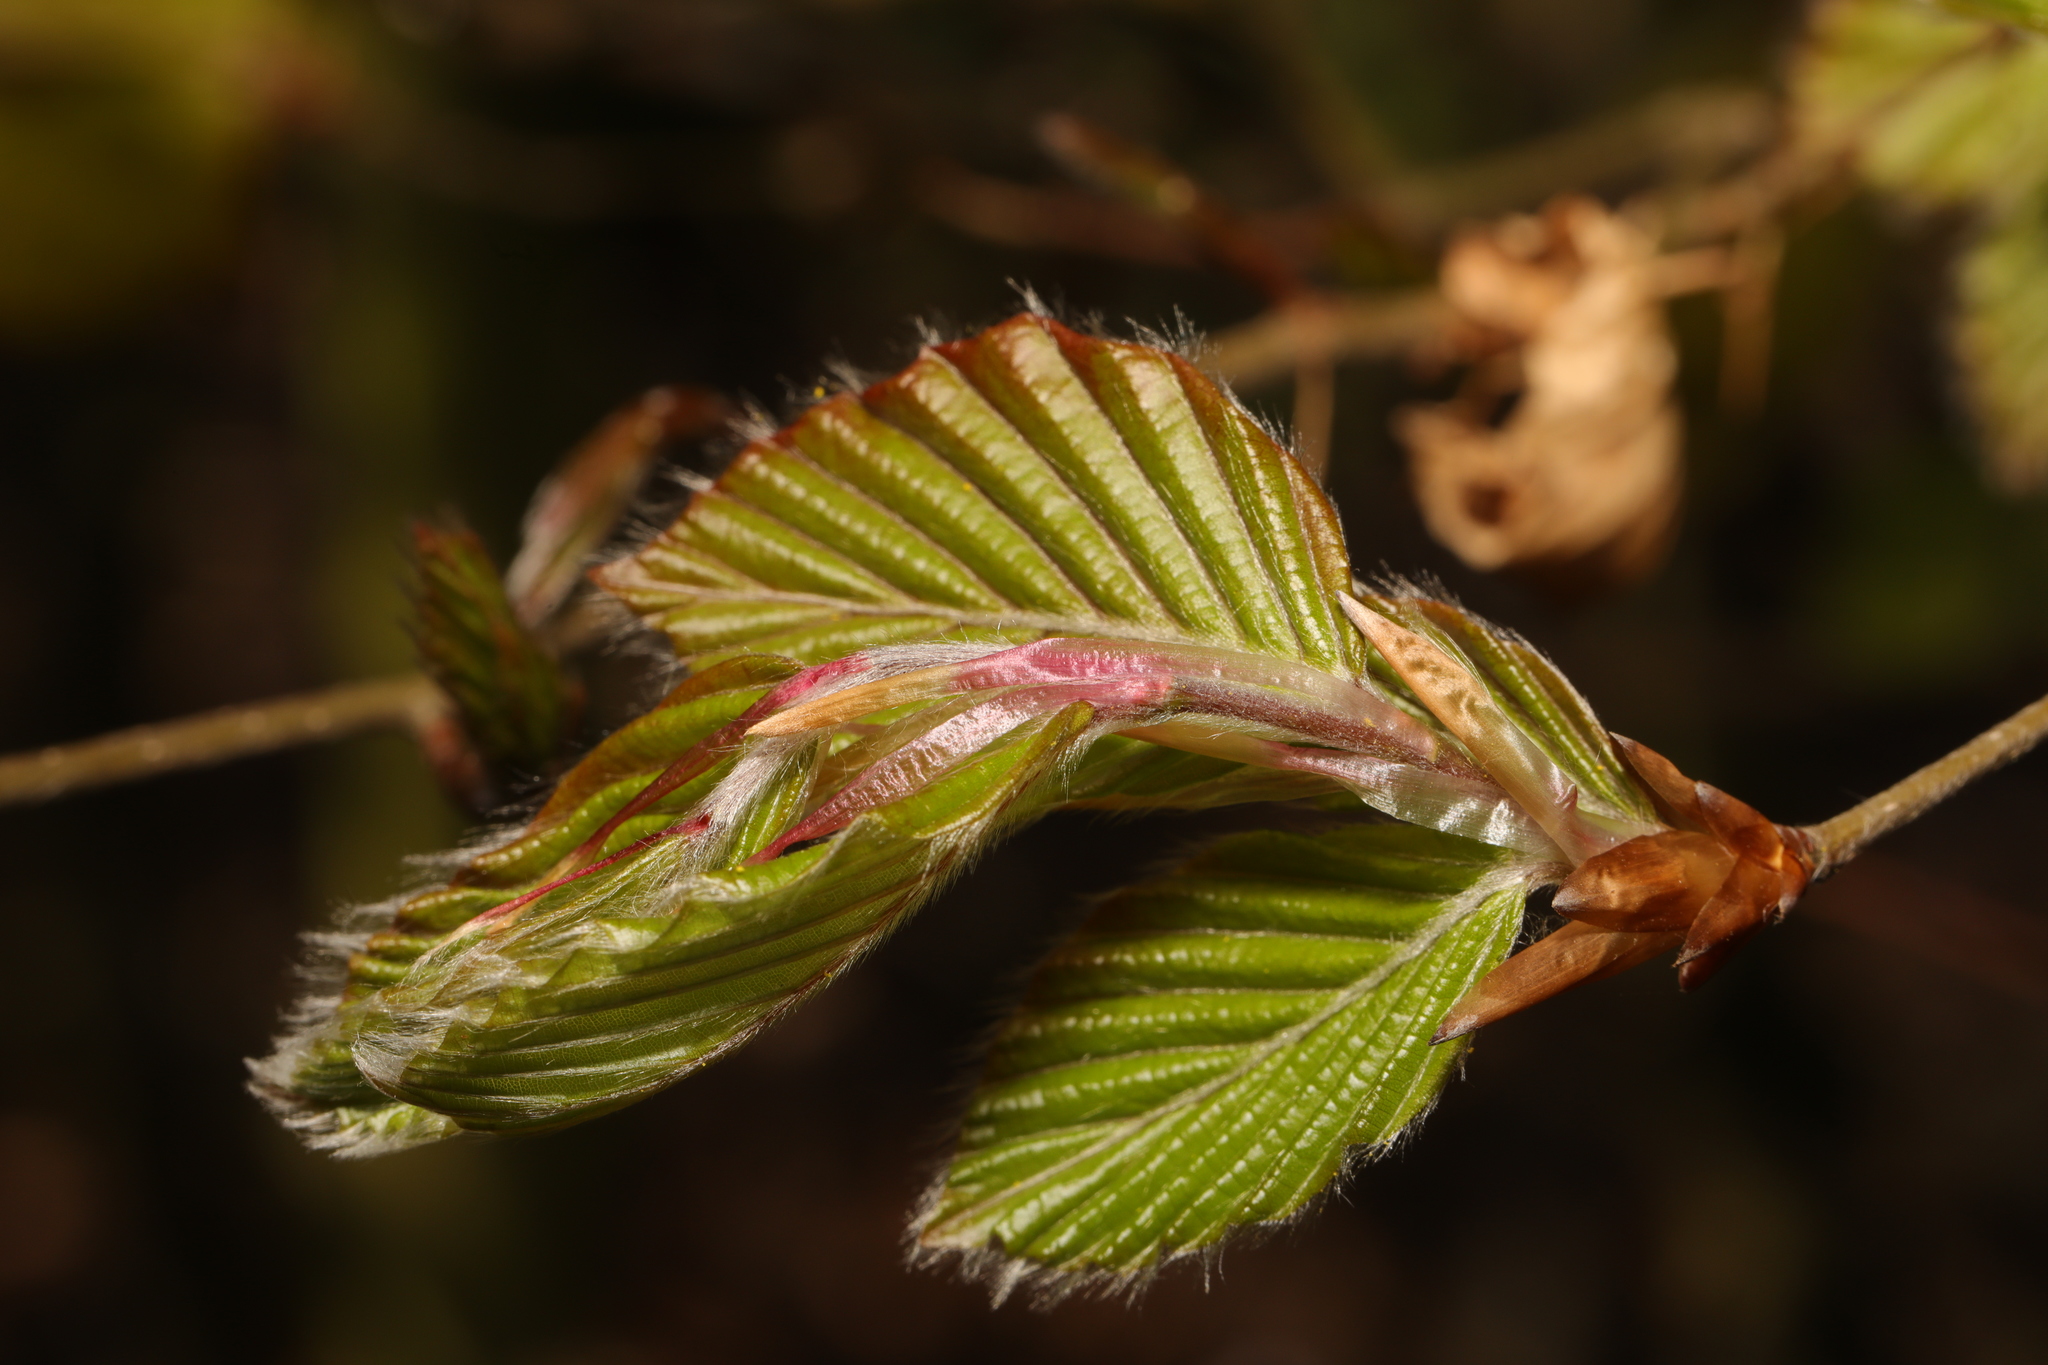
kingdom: Plantae
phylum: Tracheophyta
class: Magnoliopsida
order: Fagales
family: Fagaceae
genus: Fagus
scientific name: Fagus sylvatica
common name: Beech
